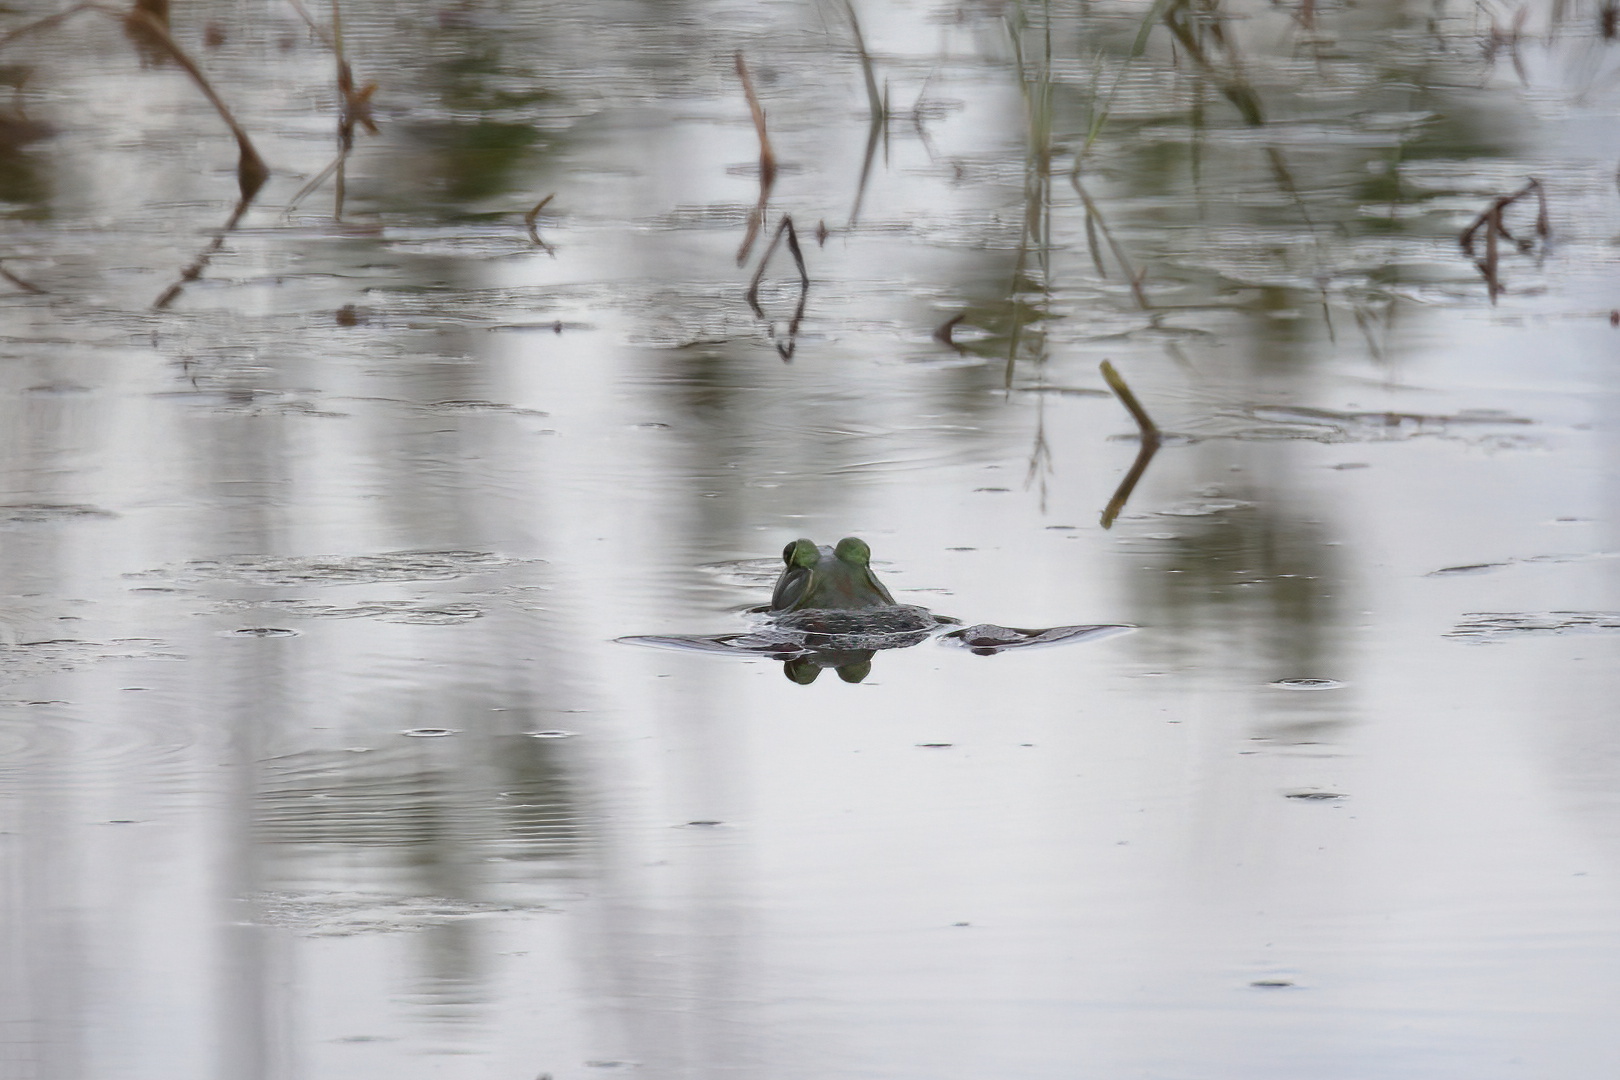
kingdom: Animalia
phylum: Chordata
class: Amphibia
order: Anura
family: Ranidae
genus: Lithobates
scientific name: Lithobates catesbeianus
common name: American bullfrog
